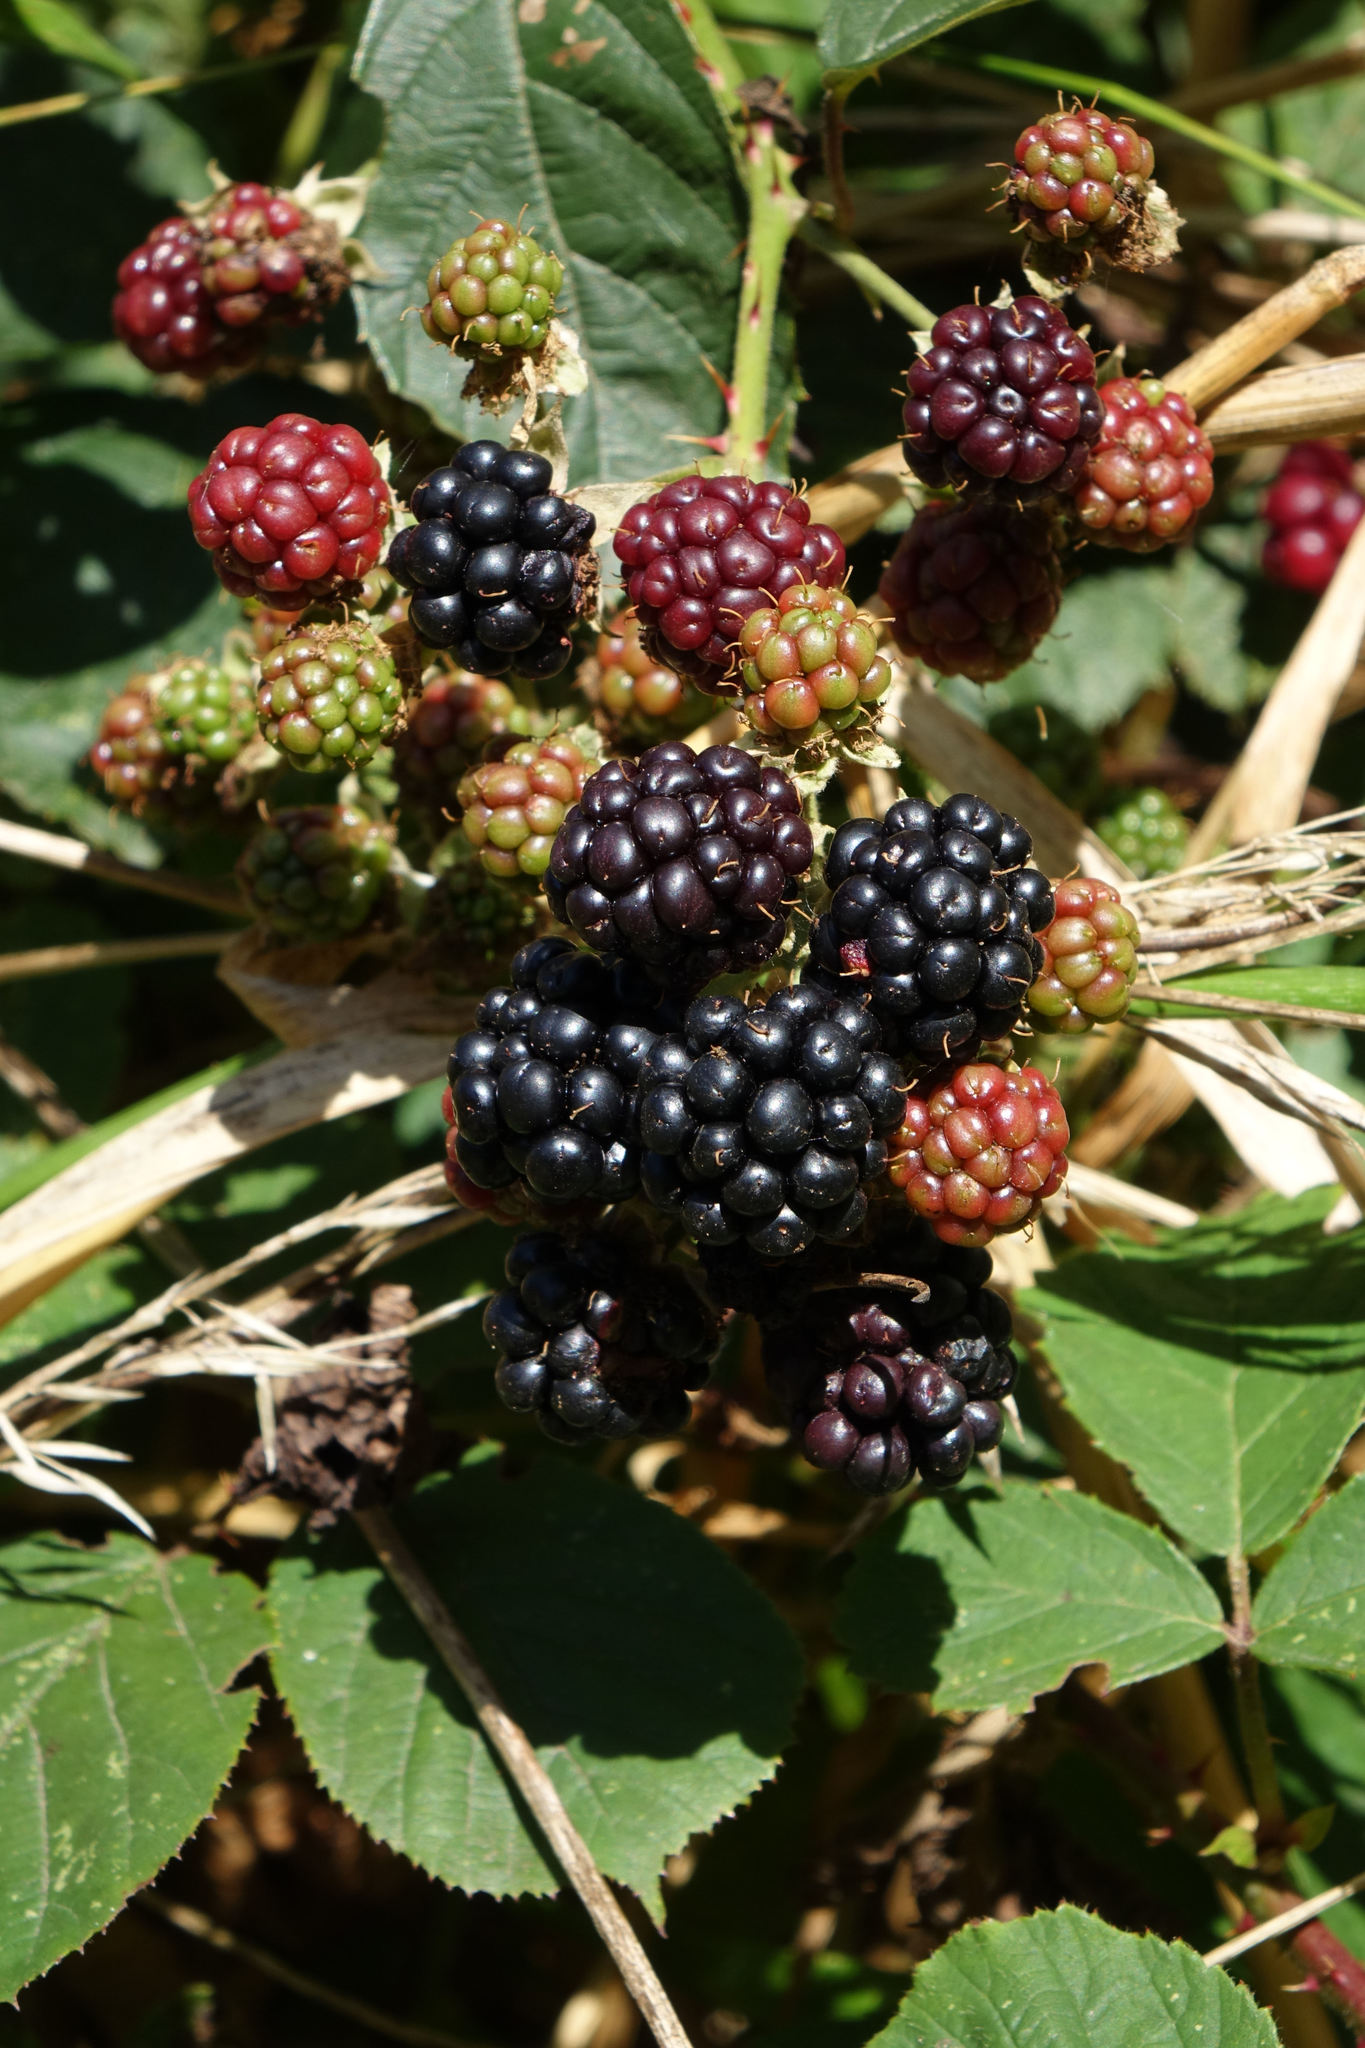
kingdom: Plantae
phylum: Tracheophyta
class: Magnoliopsida
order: Rosales
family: Rosaceae
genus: Rubus
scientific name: Rubus
